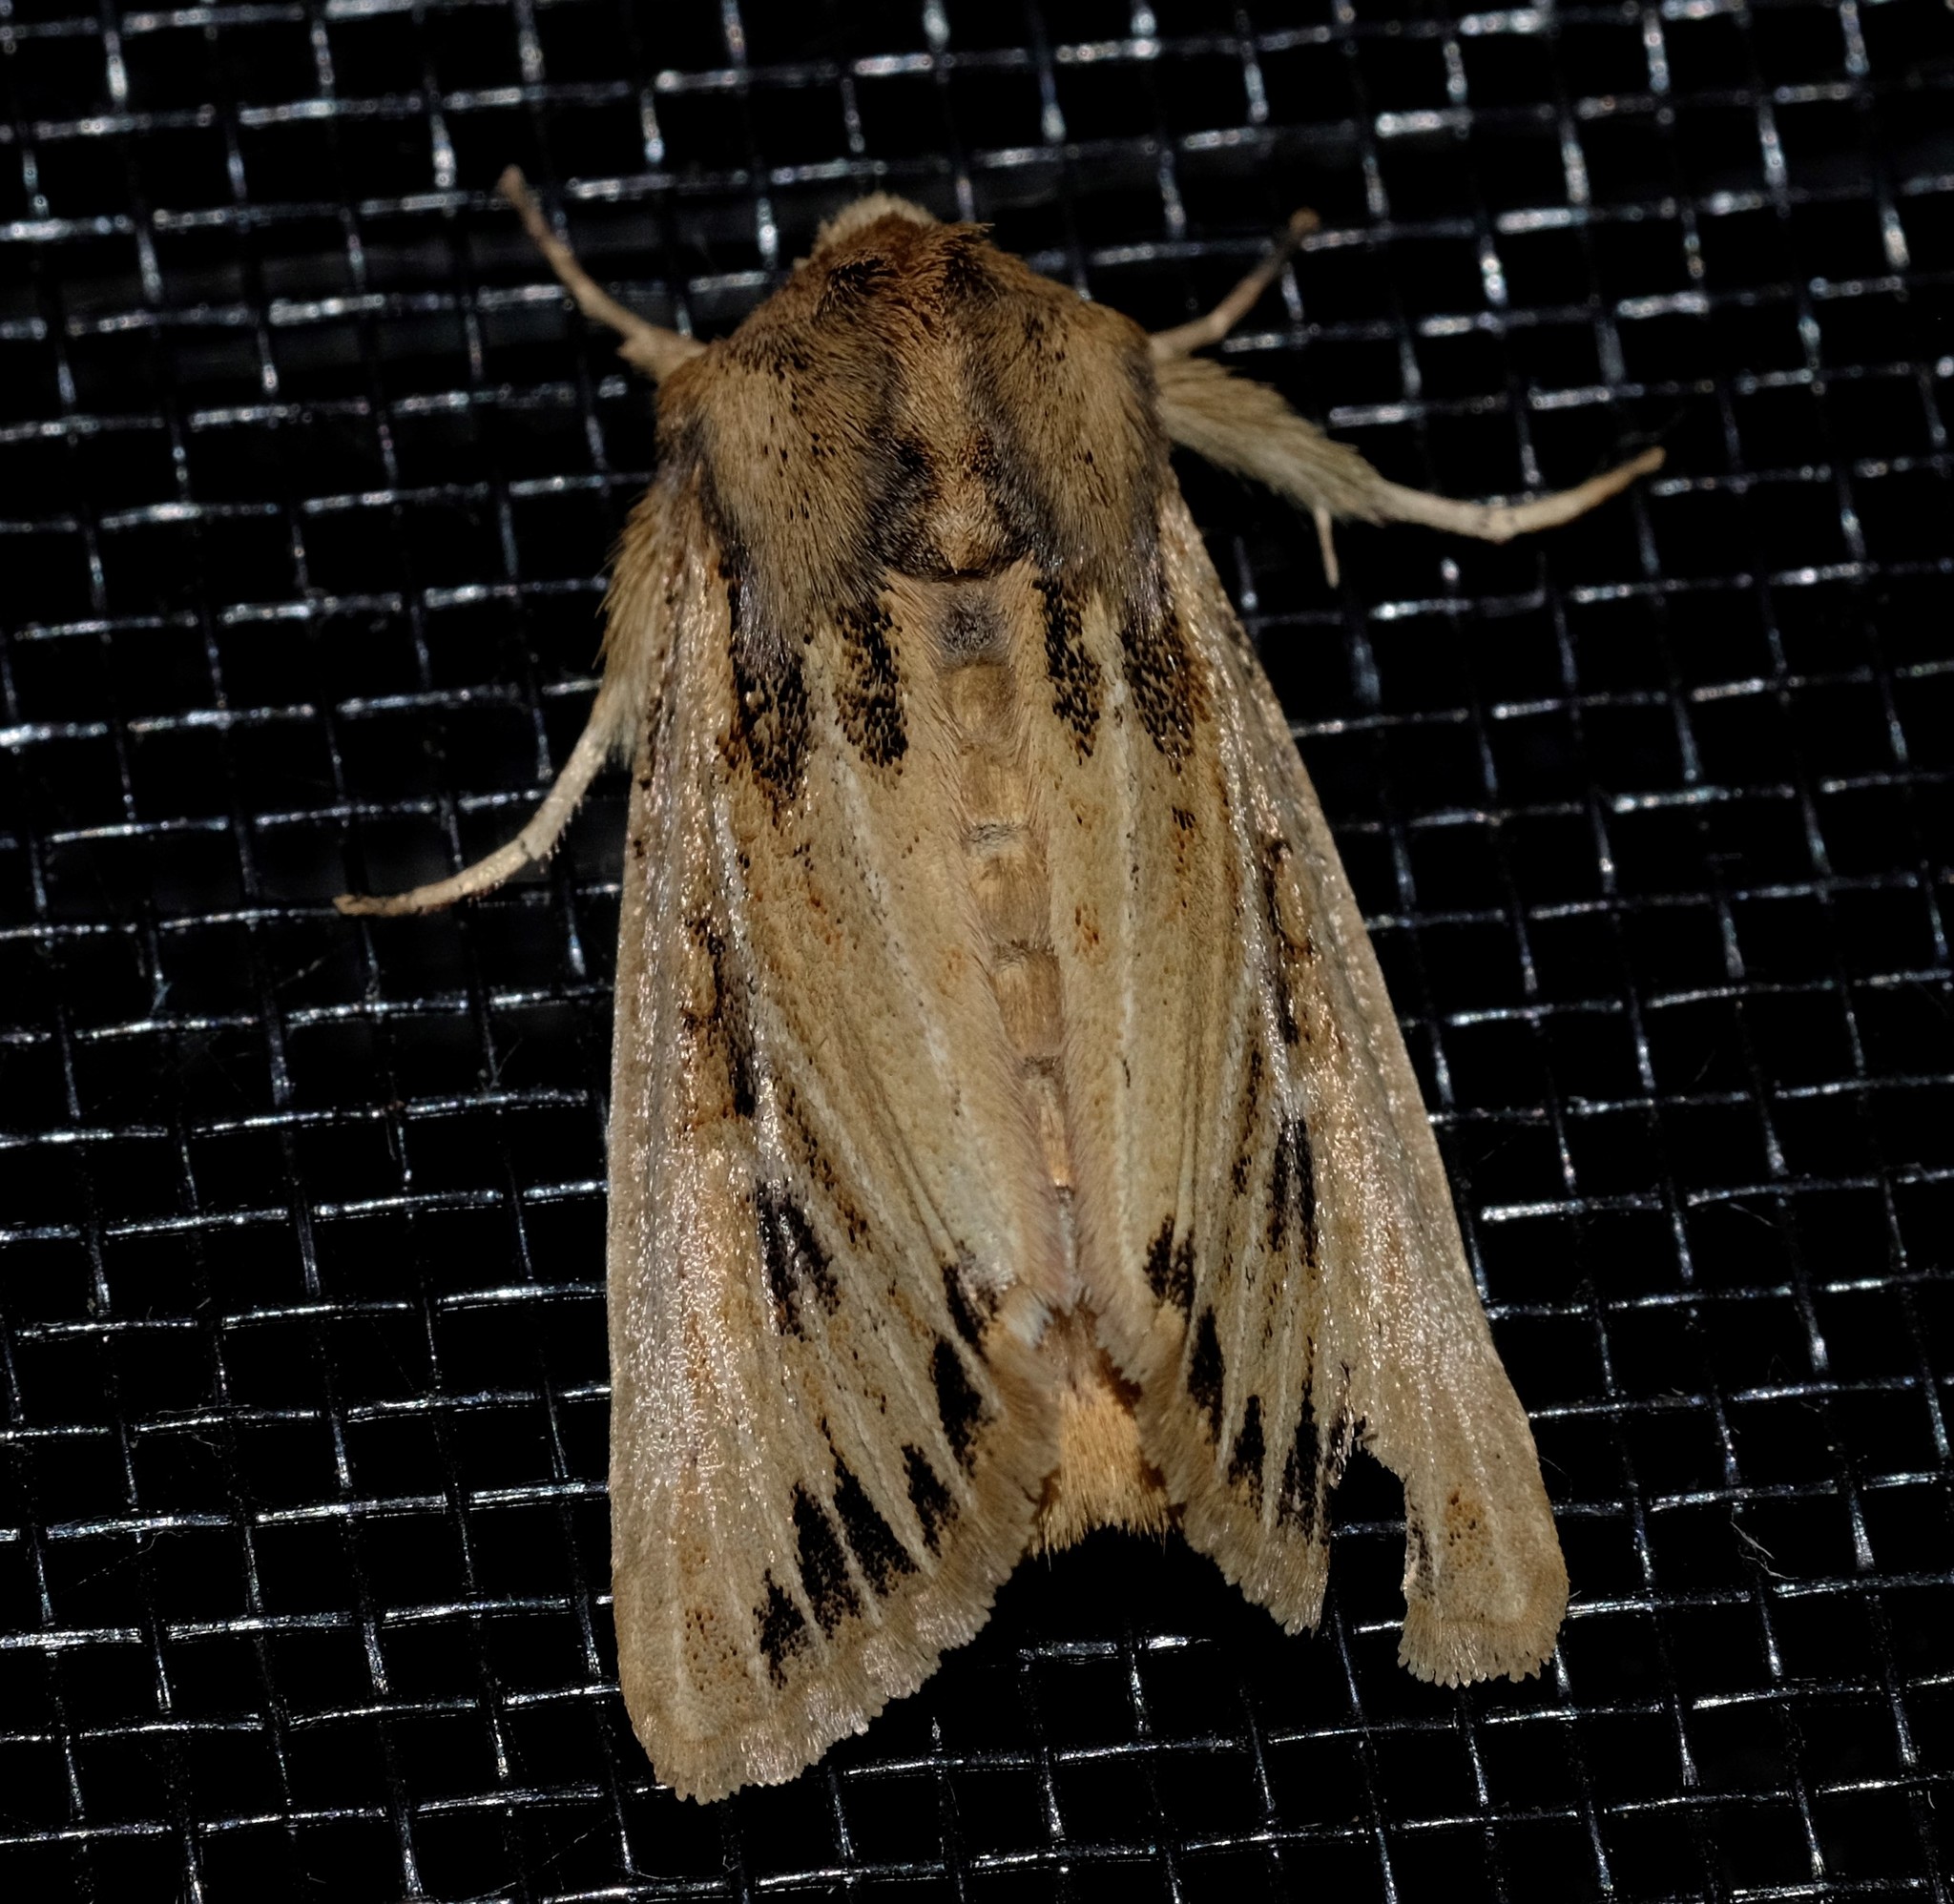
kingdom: Animalia
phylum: Arthropoda
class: Insecta
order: Lepidoptera
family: Noctuidae
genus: Leucania
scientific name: Leucania obusta
